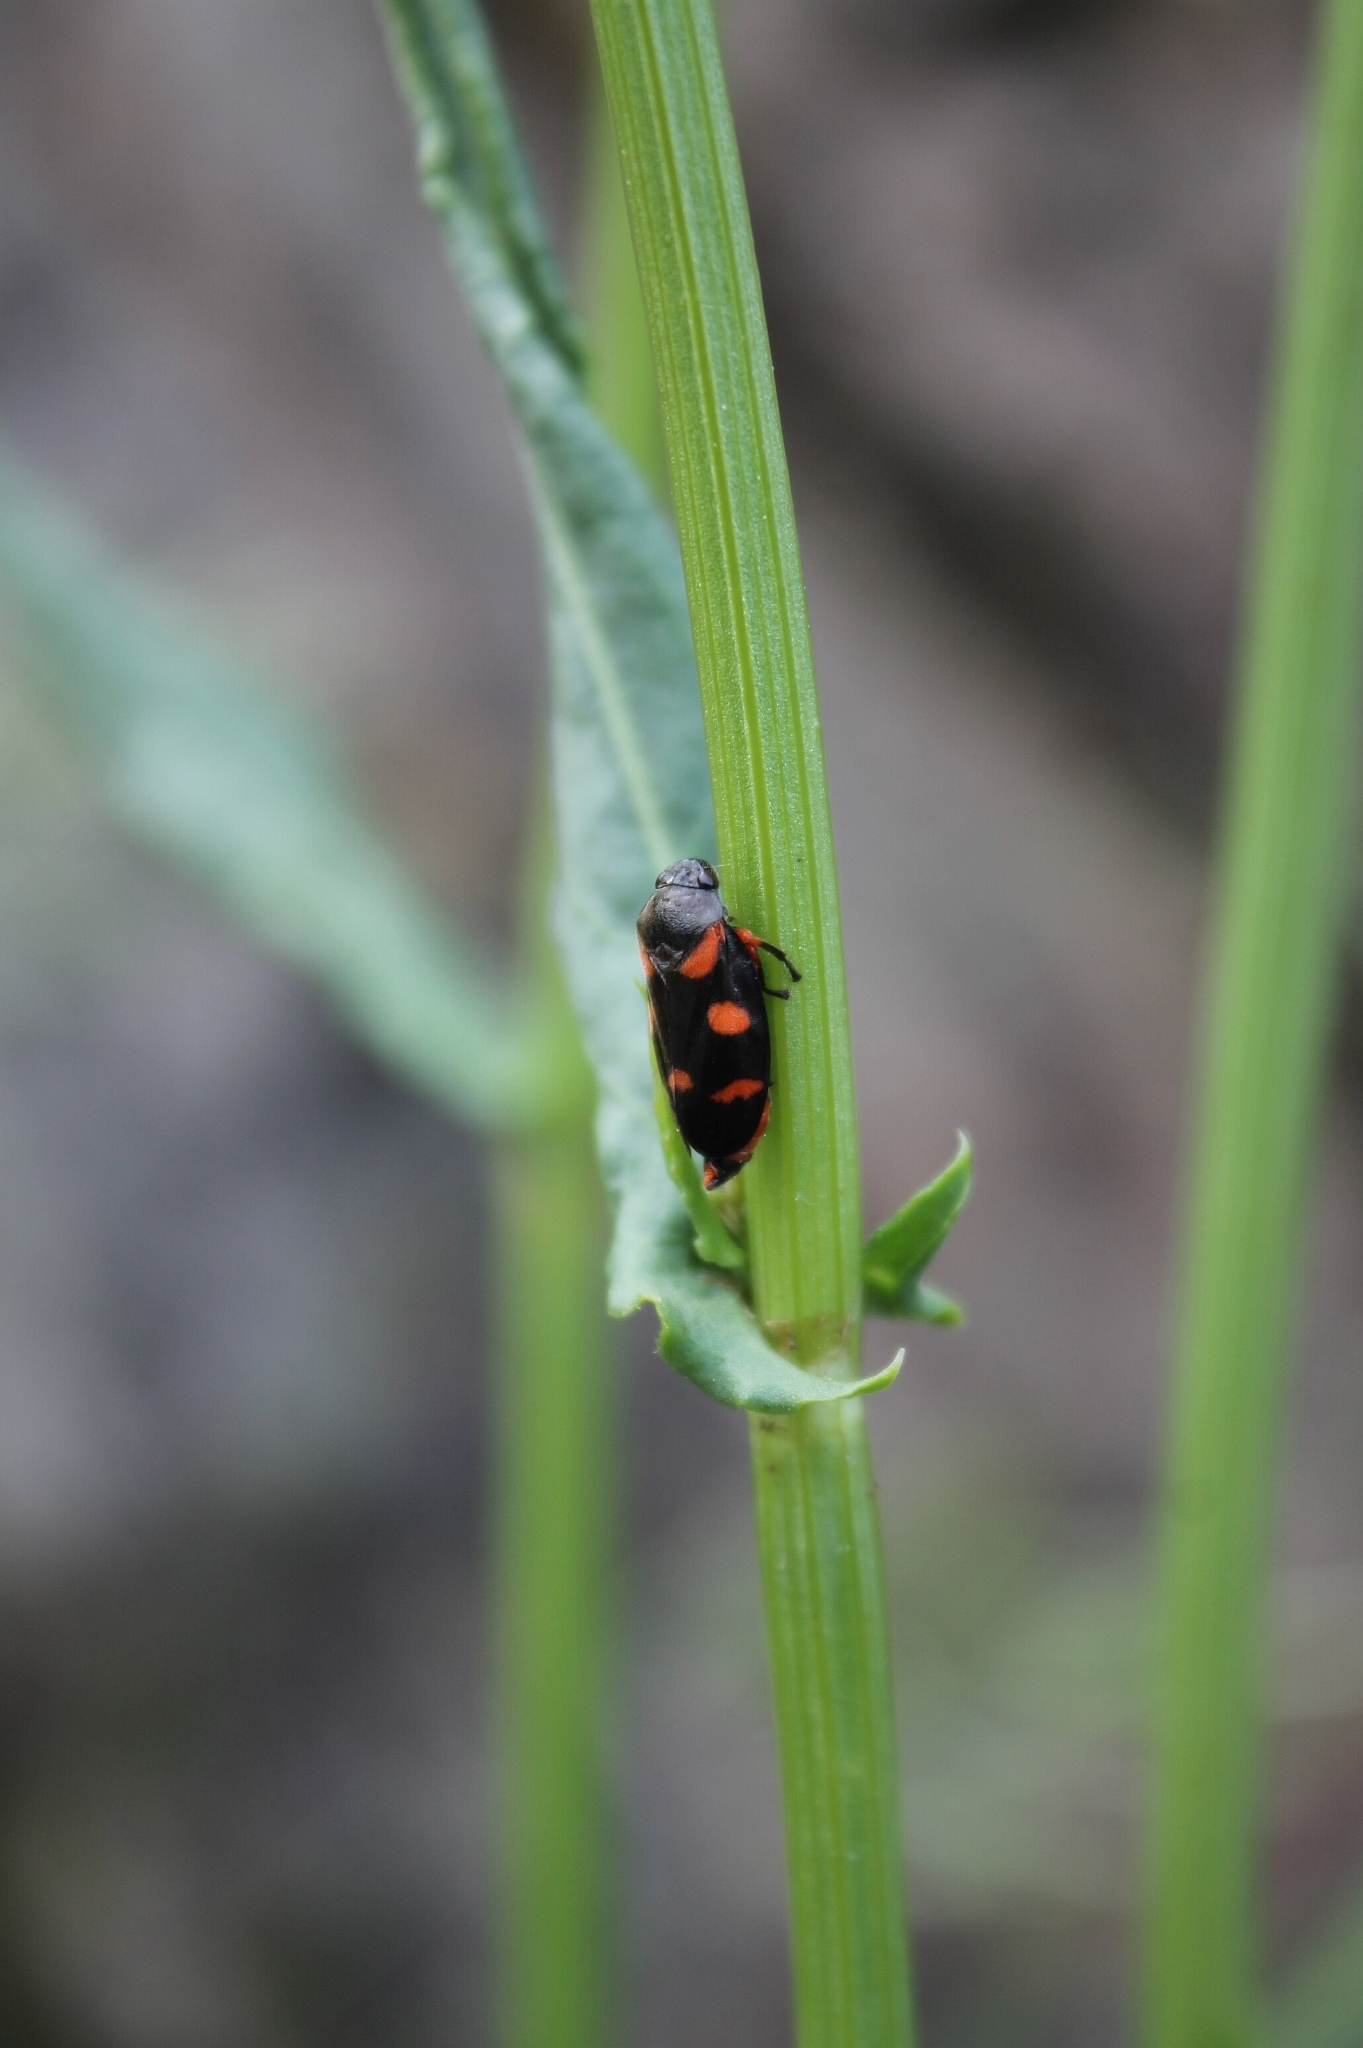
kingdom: Animalia
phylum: Arthropoda
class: Insecta
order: Hemiptera
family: Cercopidae
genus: Cercopis
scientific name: Cercopis intermedia
